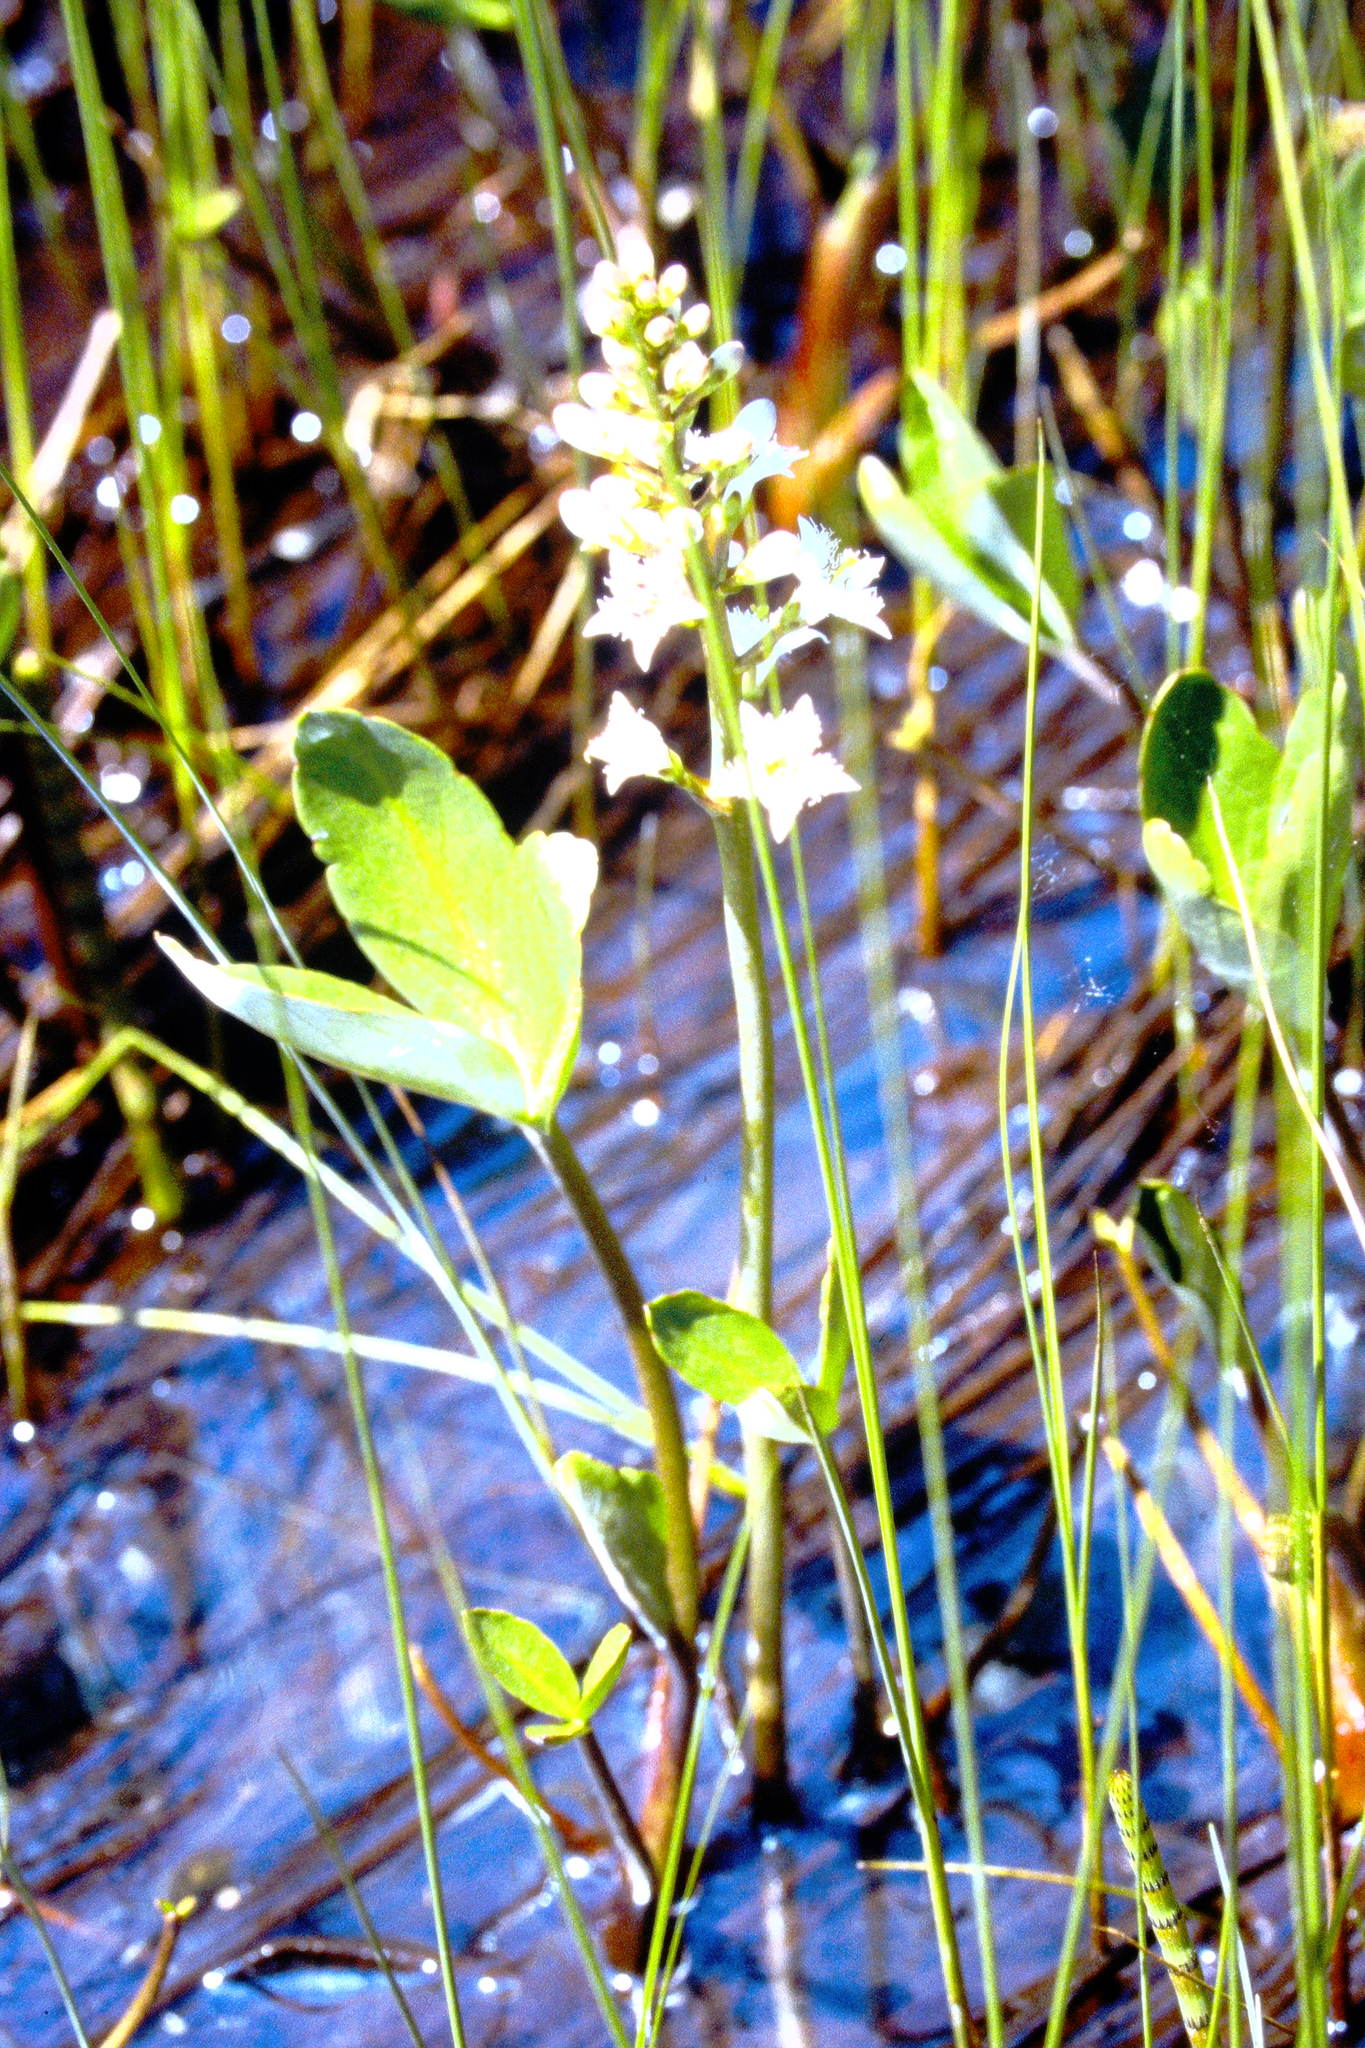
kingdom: Plantae
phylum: Tracheophyta
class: Magnoliopsida
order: Asterales
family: Menyanthaceae
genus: Menyanthes
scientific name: Menyanthes trifoliata
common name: Bogbean
